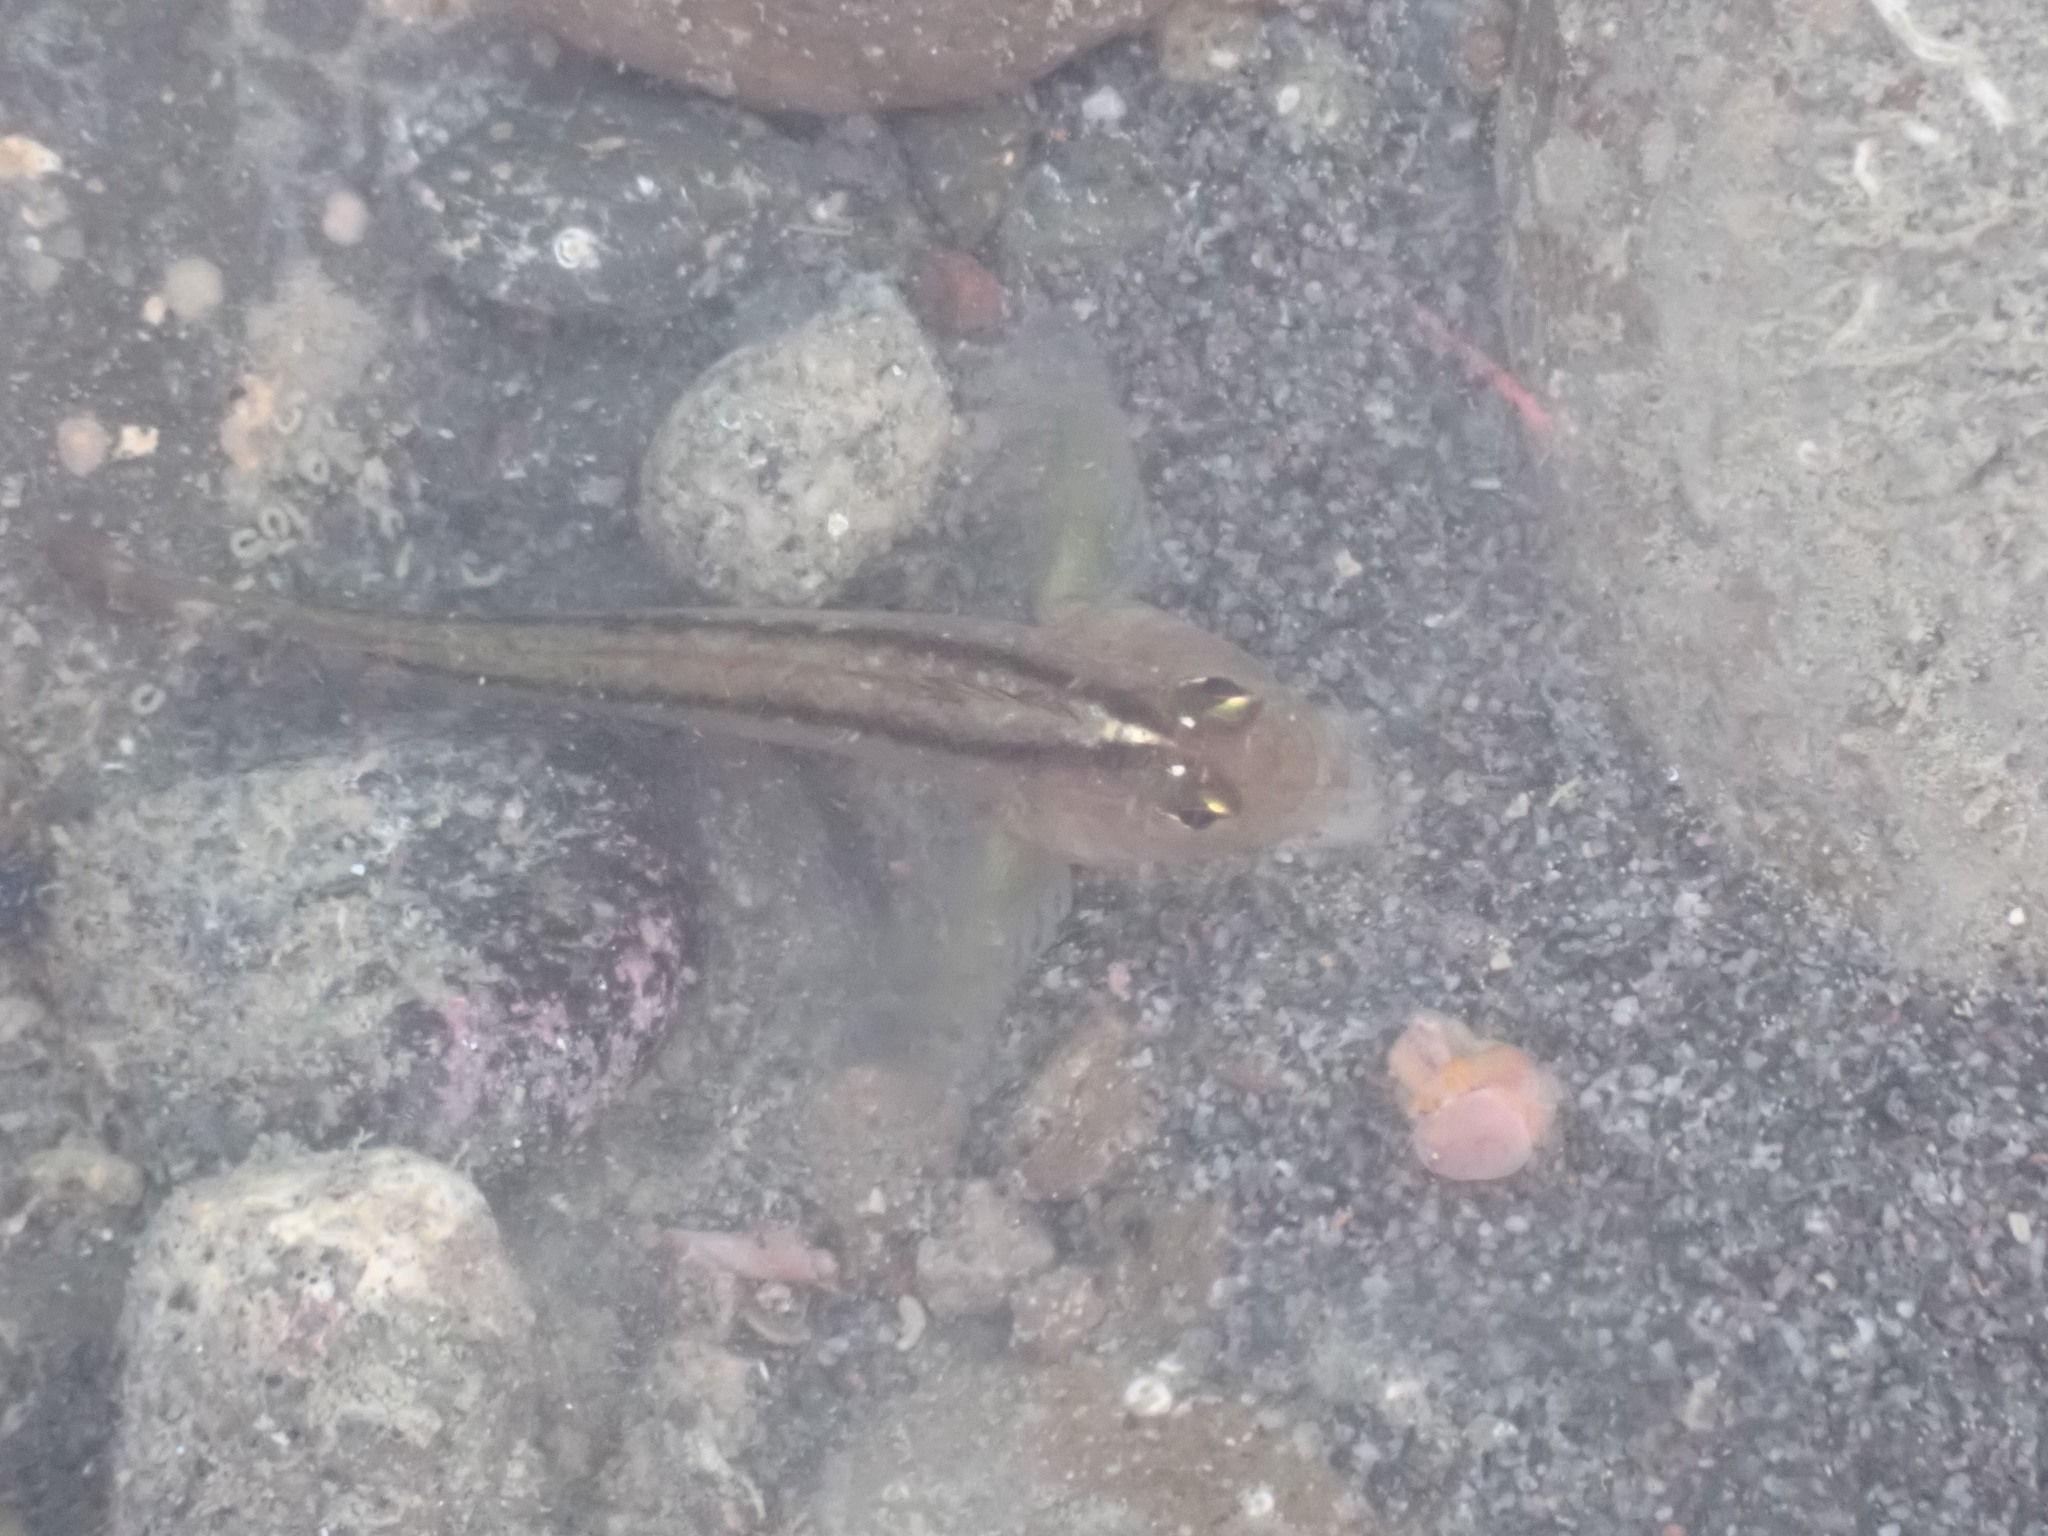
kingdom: Animalia
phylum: Chordata
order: Perciformes
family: Tripterygiidae
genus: Forsterygion
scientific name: Forsterygion lapillum
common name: Common triplefin
